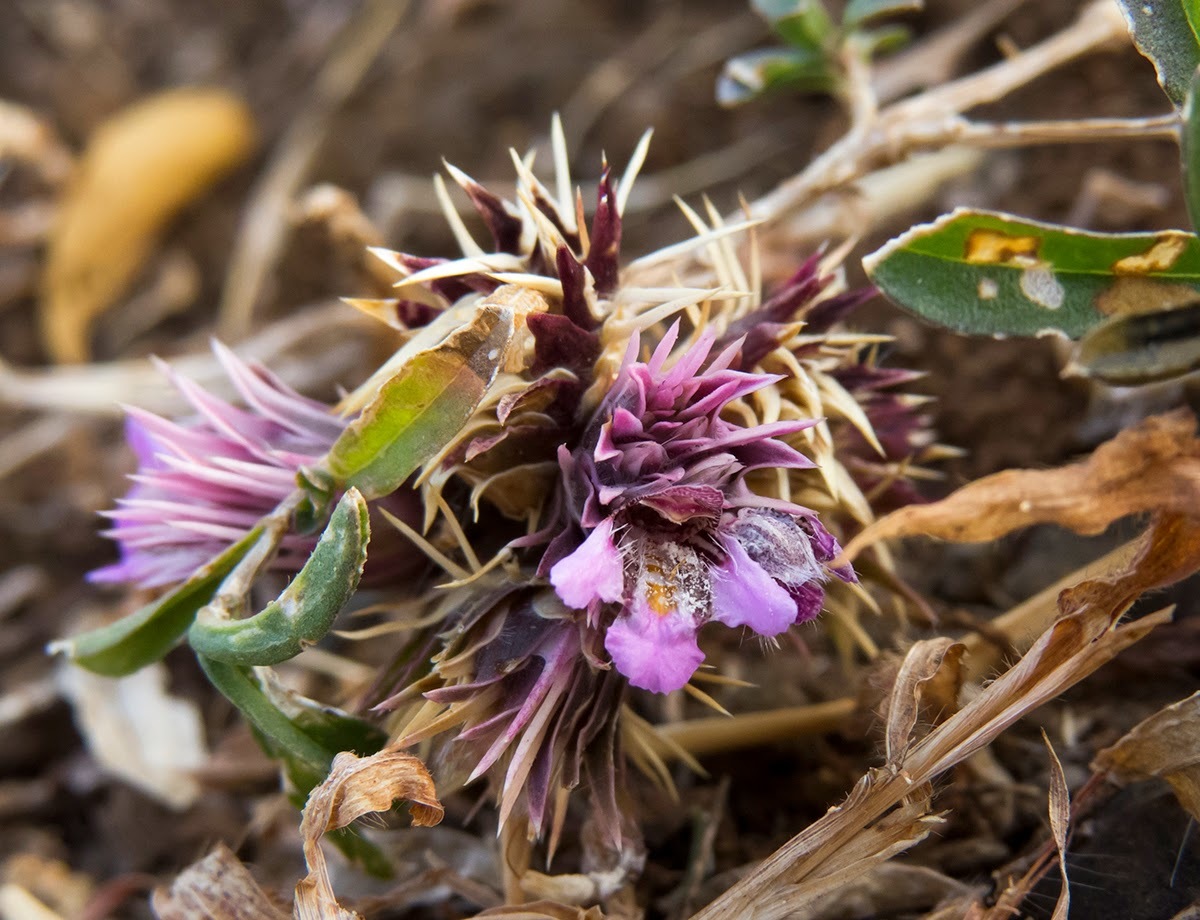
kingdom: Plantae
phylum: Tracheophyta
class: Magnoliopsida
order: Lamiales
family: Acanthaceae
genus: Lepidagathis
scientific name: Lepidagathis trinervis
